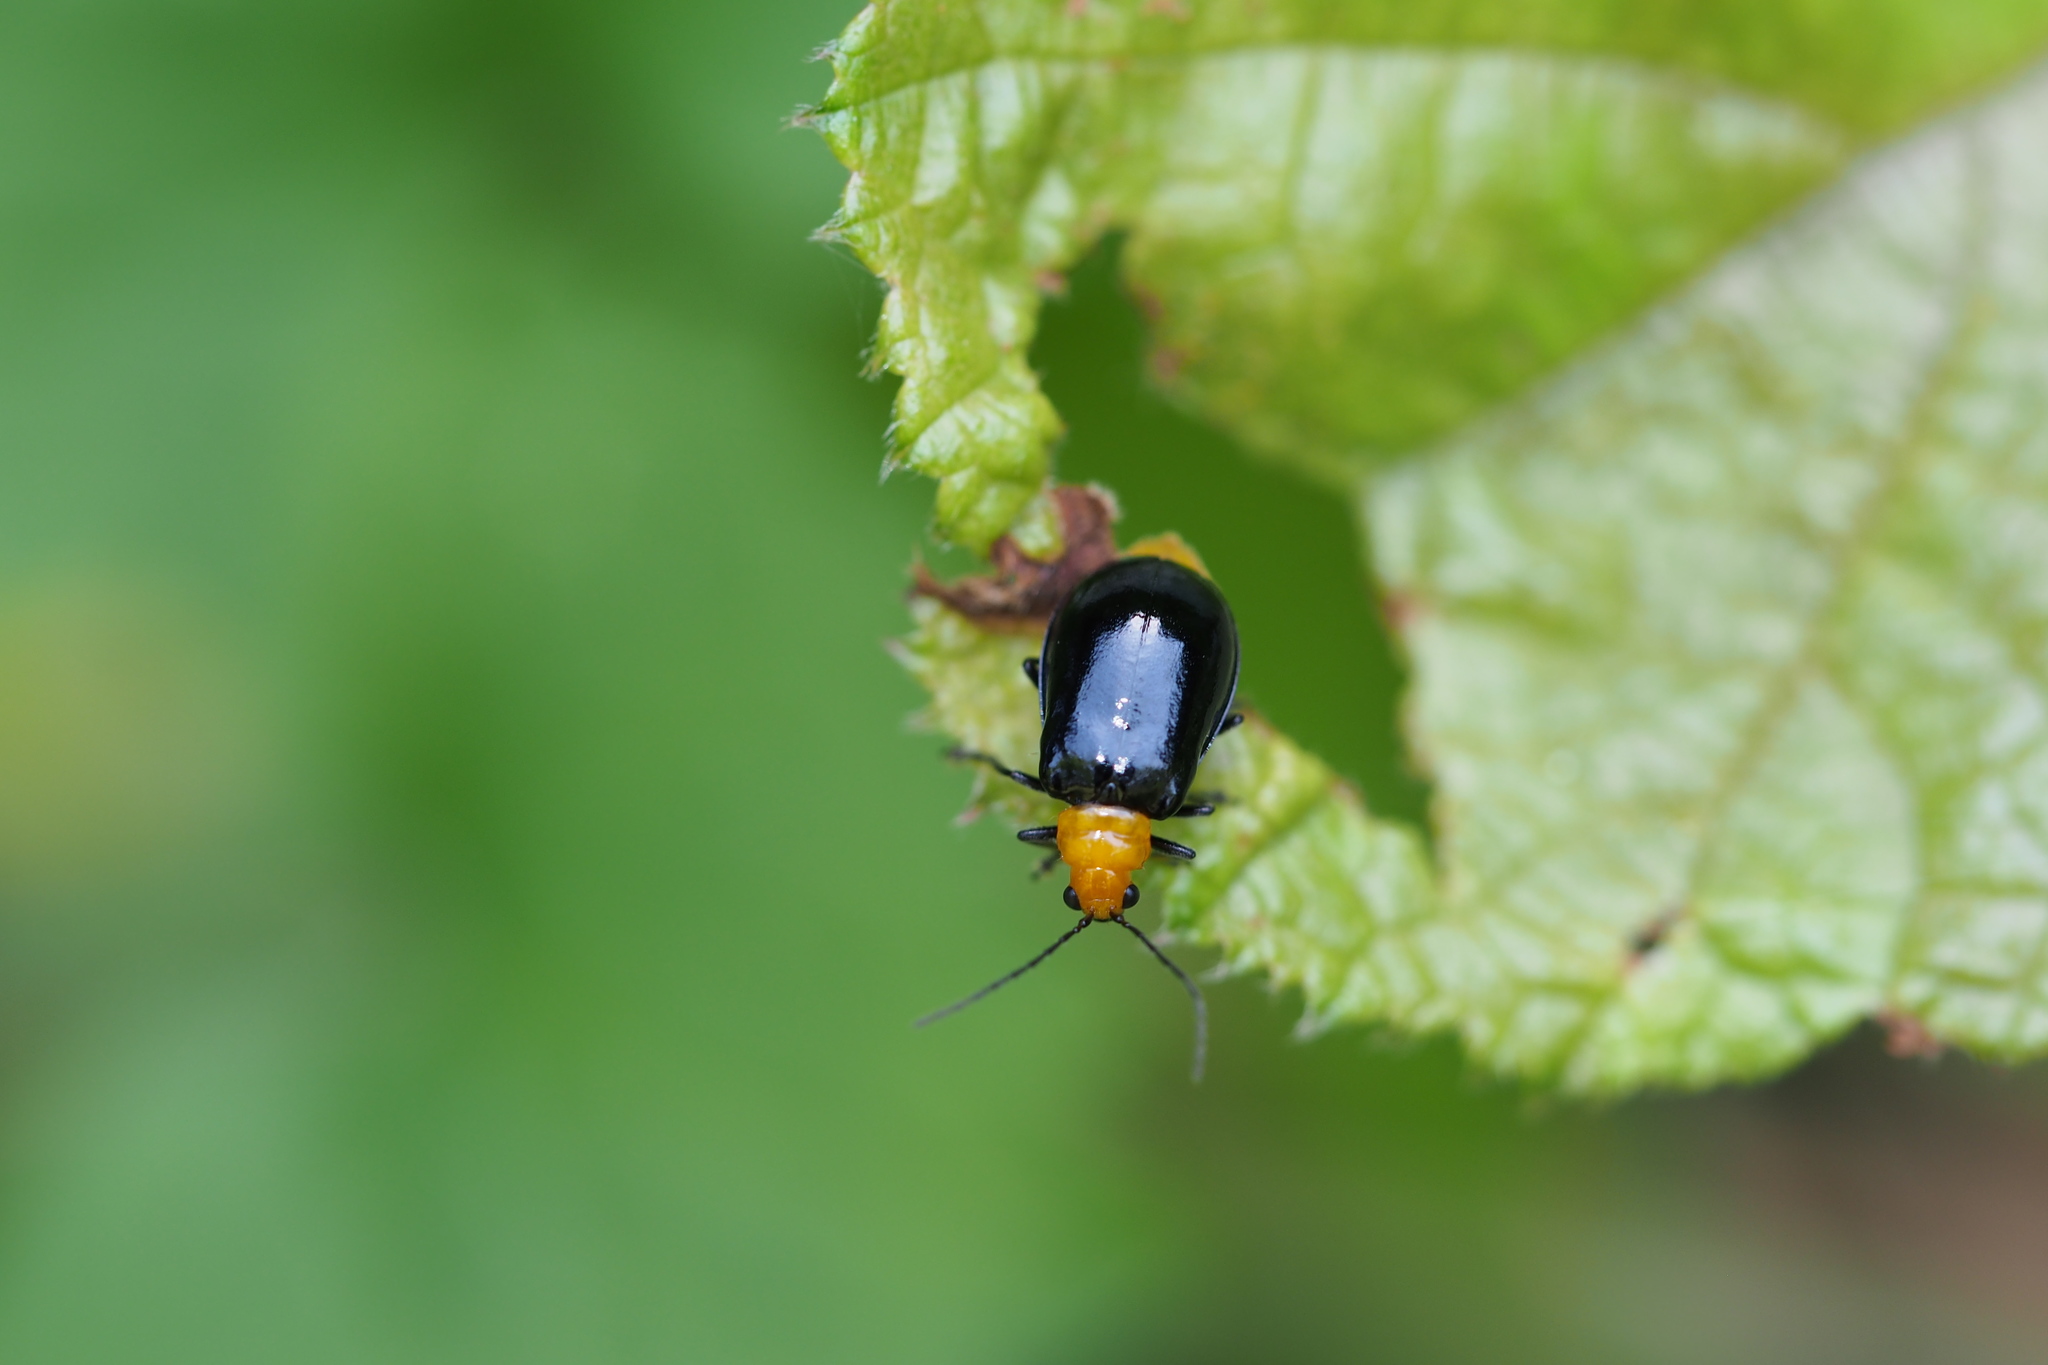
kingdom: Animalia
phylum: Arthropoda
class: Insecta
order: Coleoptera
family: Chrysomelidae
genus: Aulacophora
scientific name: Aulacophora nigripennis
